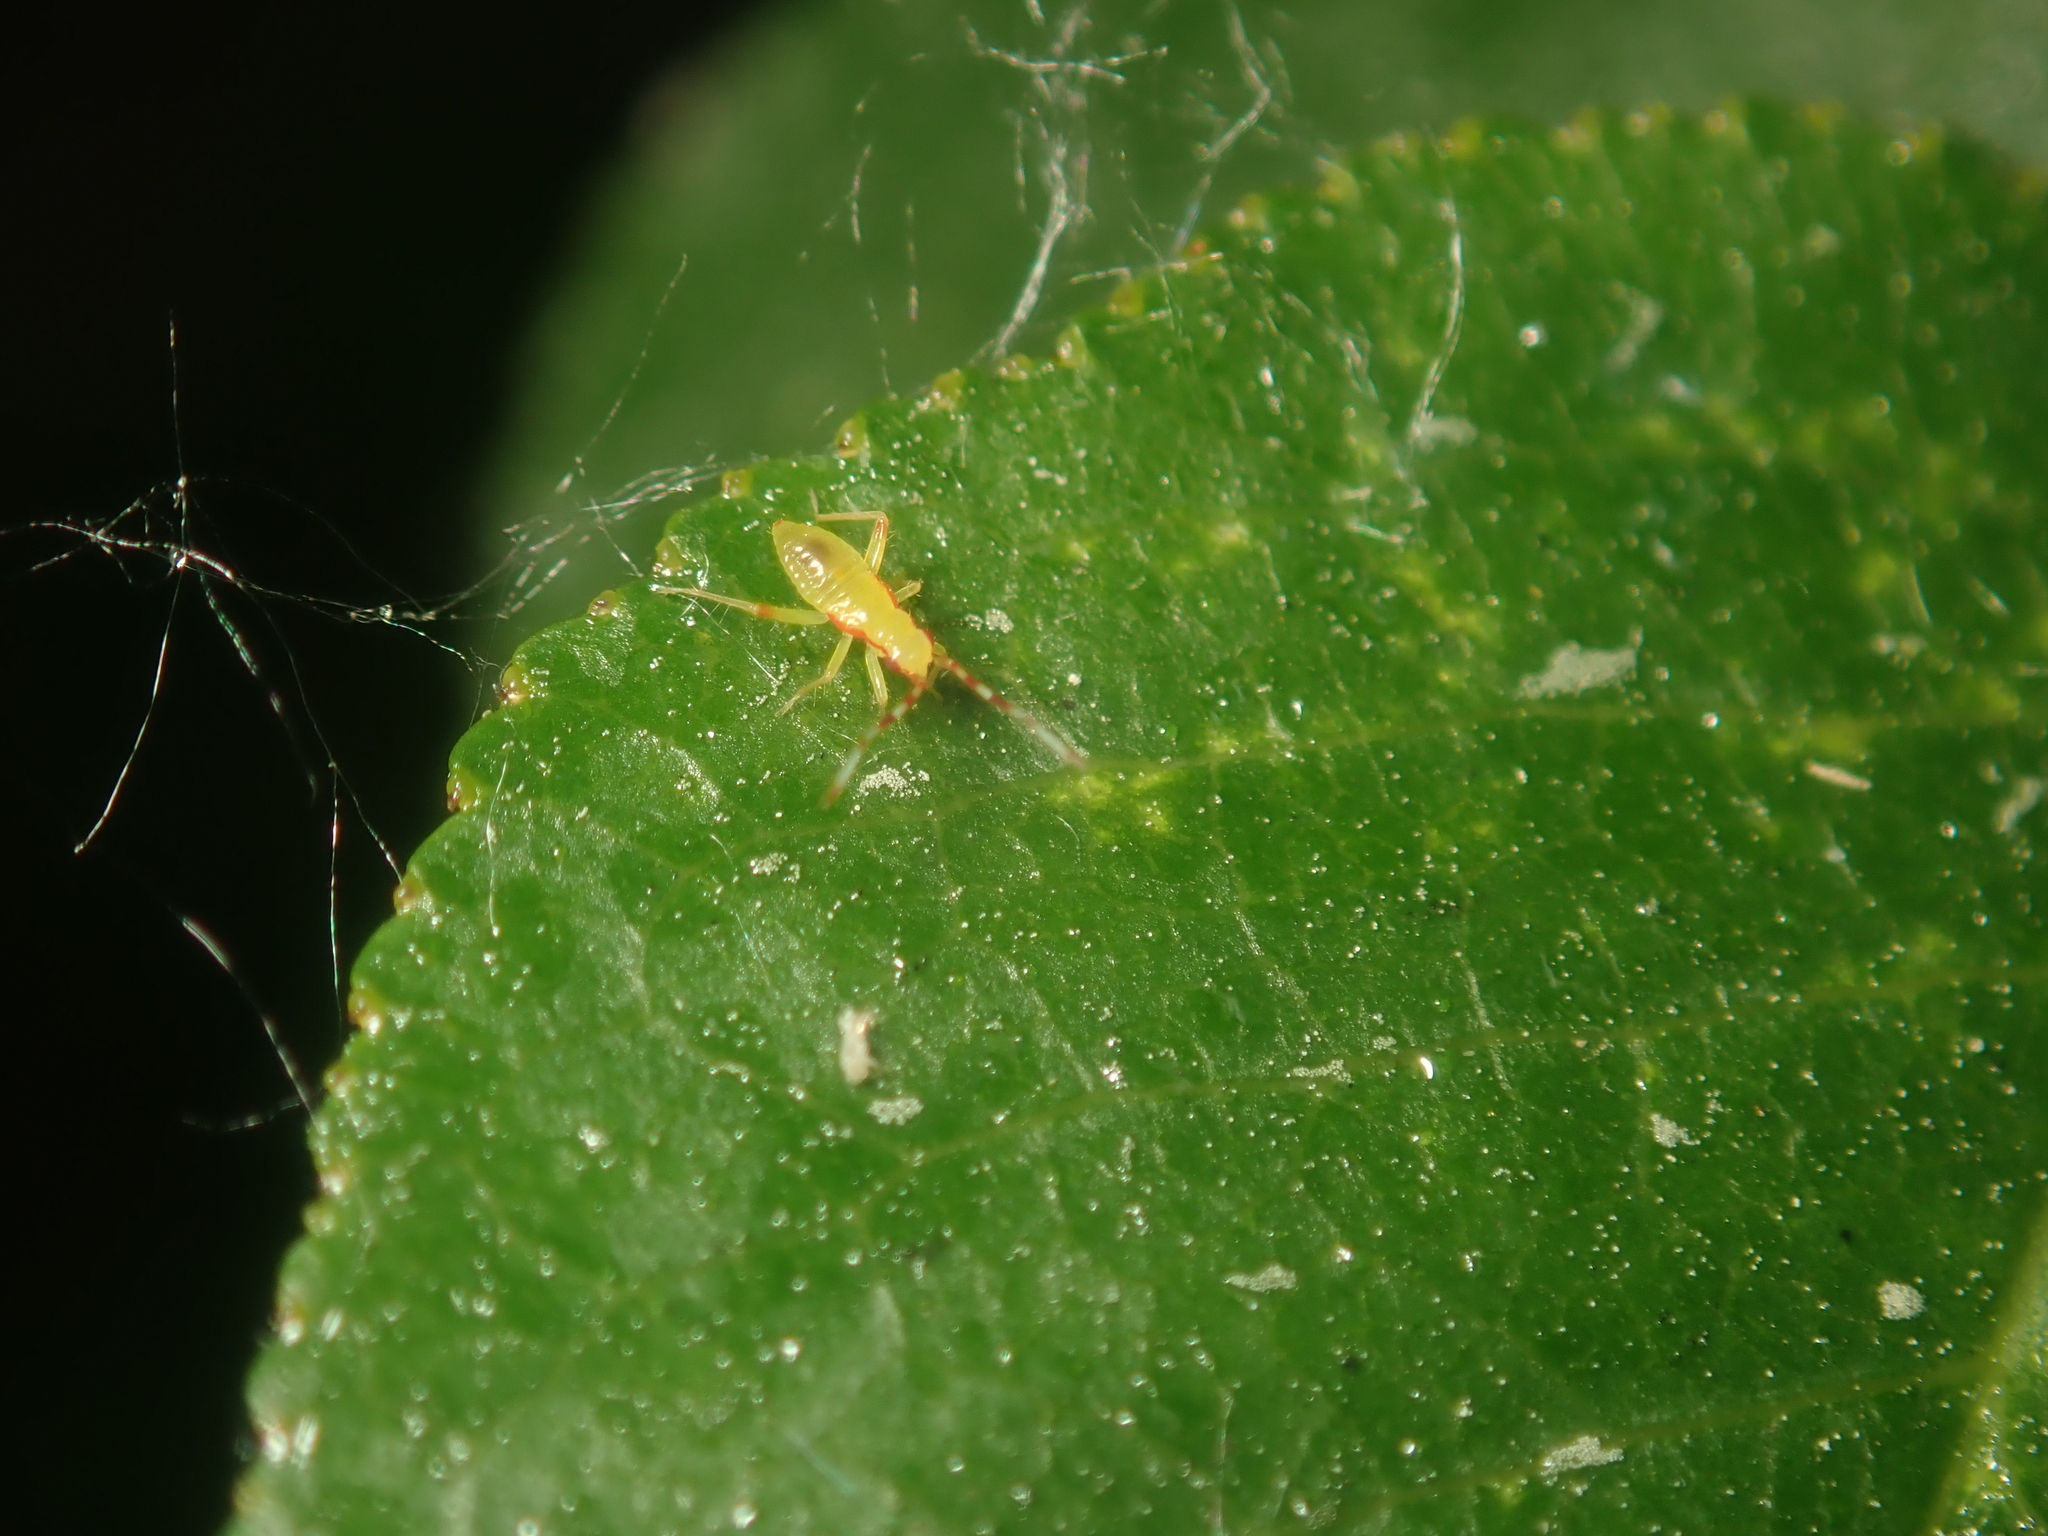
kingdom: Animalia
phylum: Arthropoda
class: Insecta
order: Hemiptera
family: Miridae
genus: Campyloneura
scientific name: Campyloneura virgula
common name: Predatory bug
